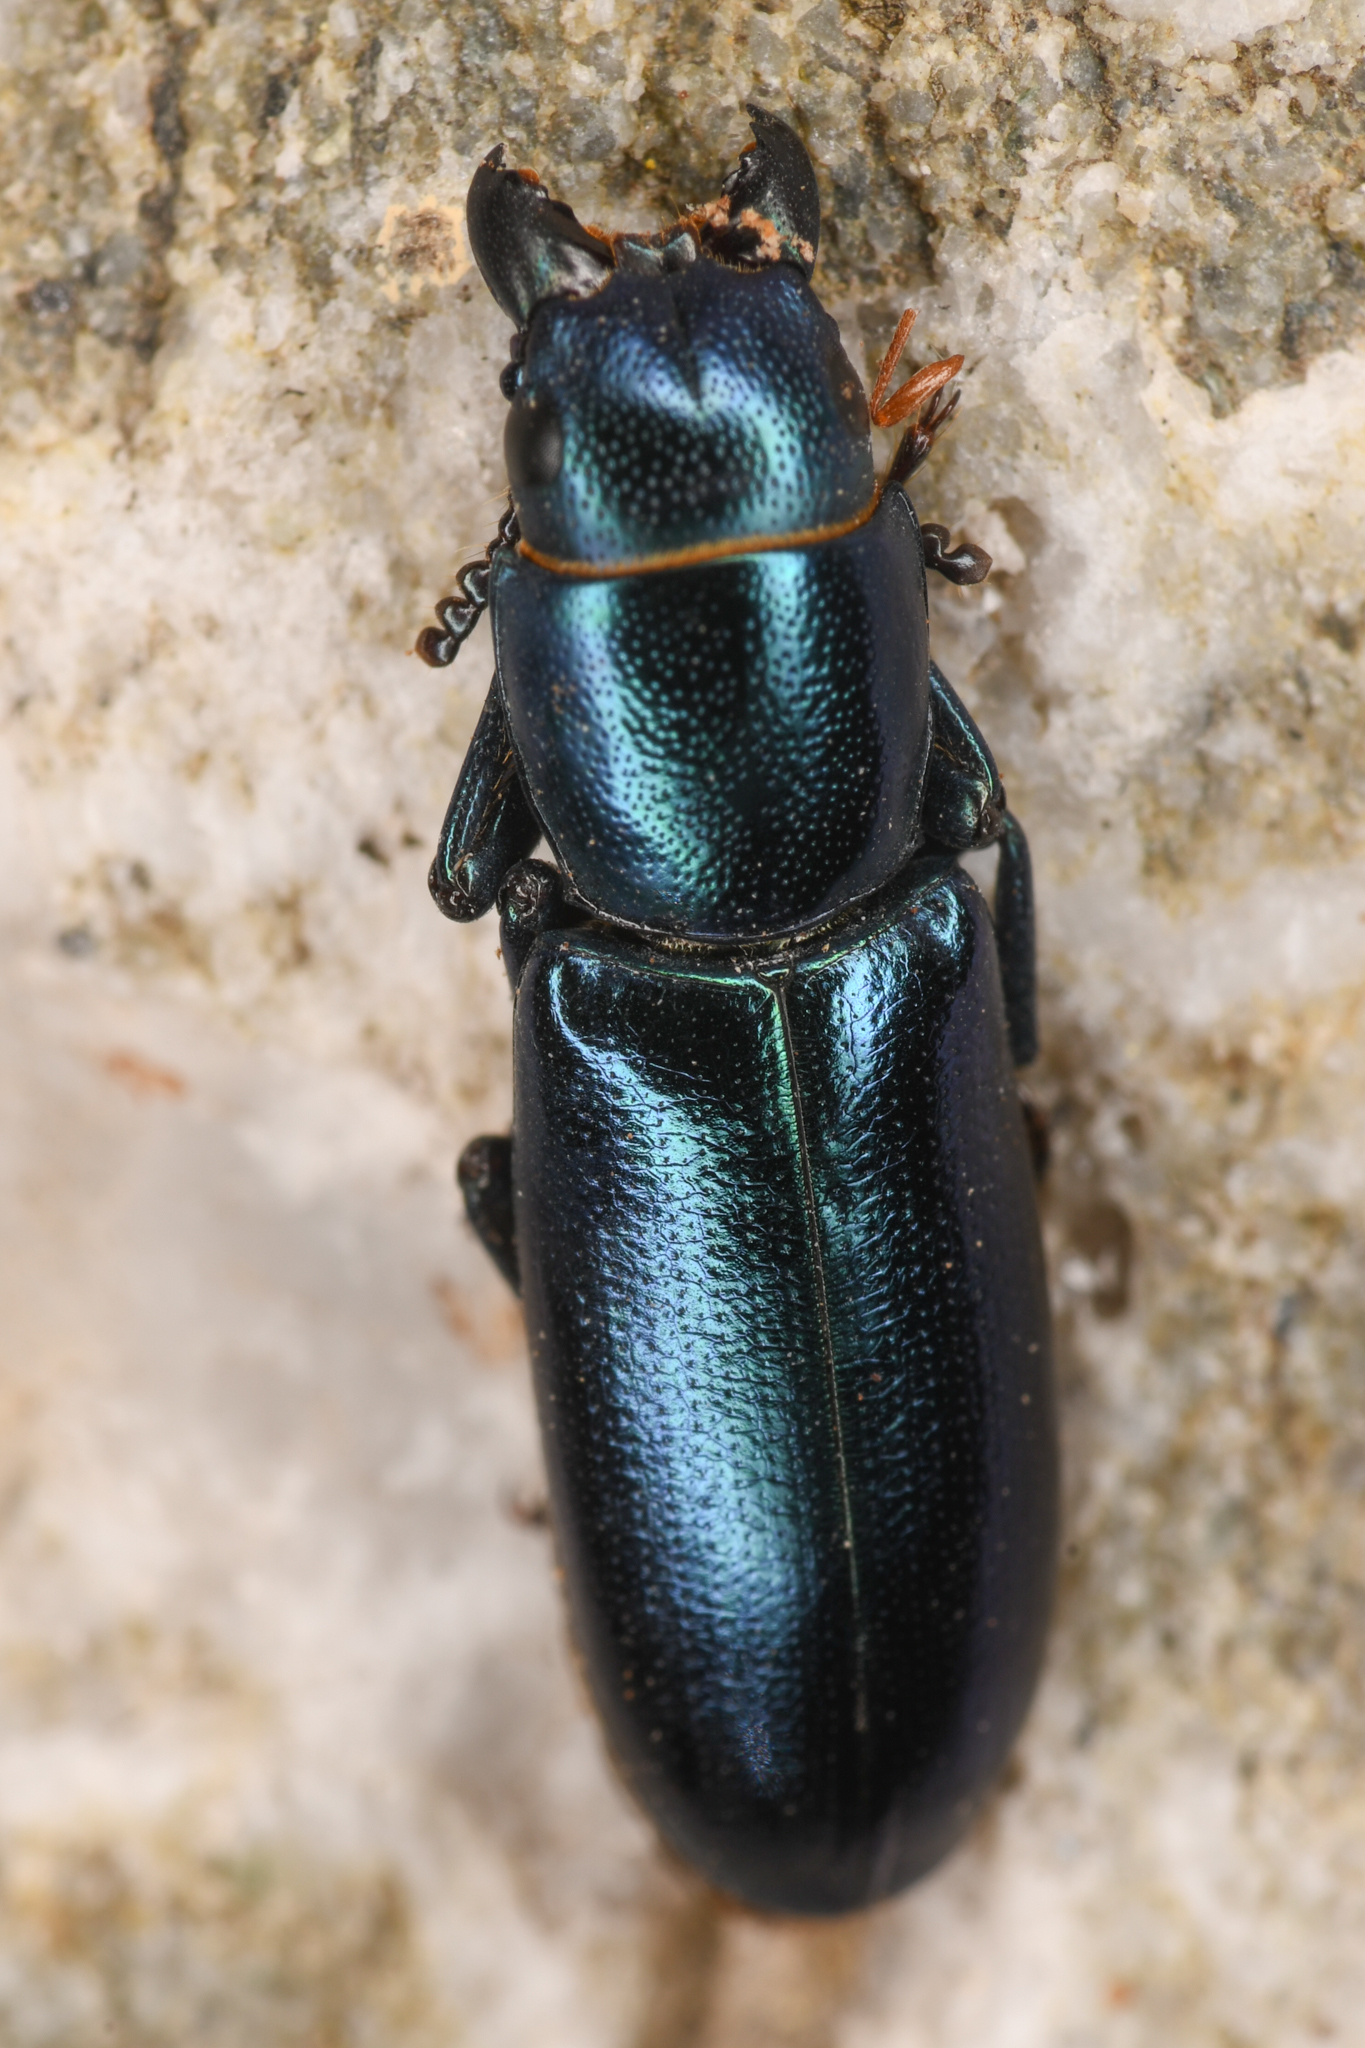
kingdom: Animalia
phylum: Arthropoda
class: Insecta
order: Coleoptera
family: Trogossitidae
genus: Temnoscheila
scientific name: Temnoscheila chlorodia
